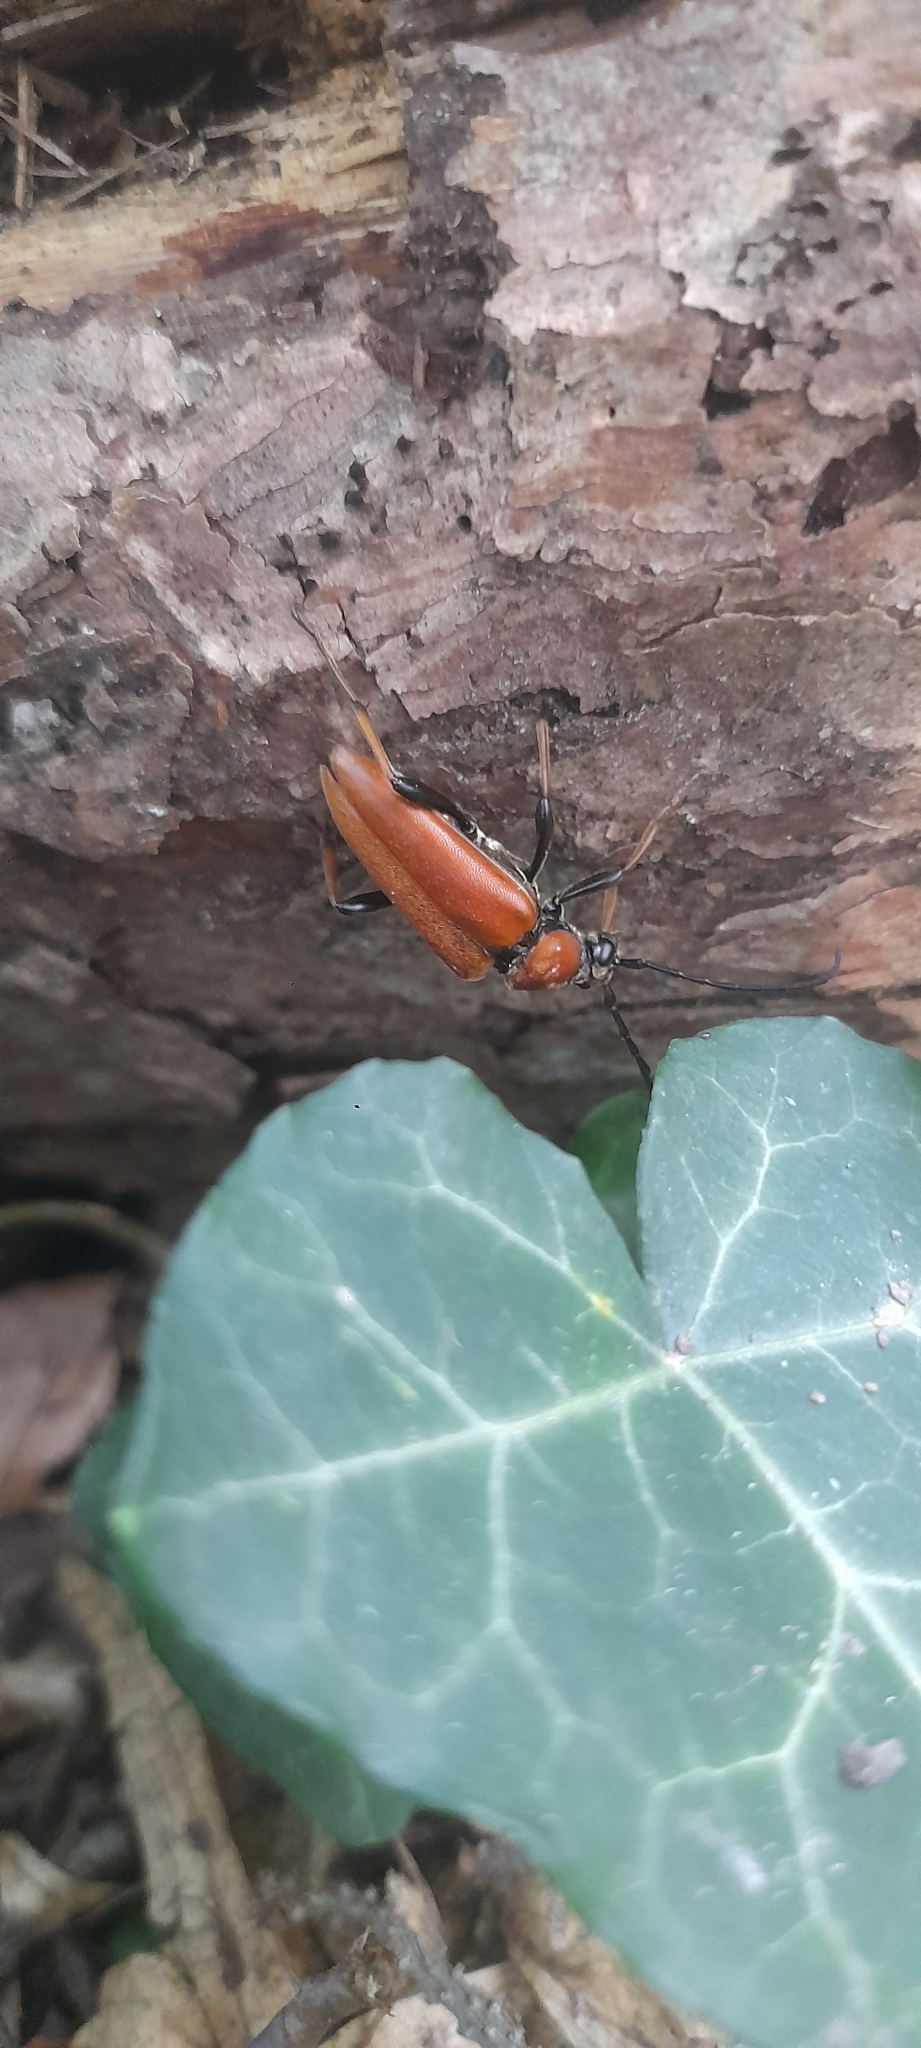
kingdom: Animalia
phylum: Arthropoda
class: Insecta
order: Coleoptera
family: Cerambycidae
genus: Stictoleptura
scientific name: Stictoleptura rubra
